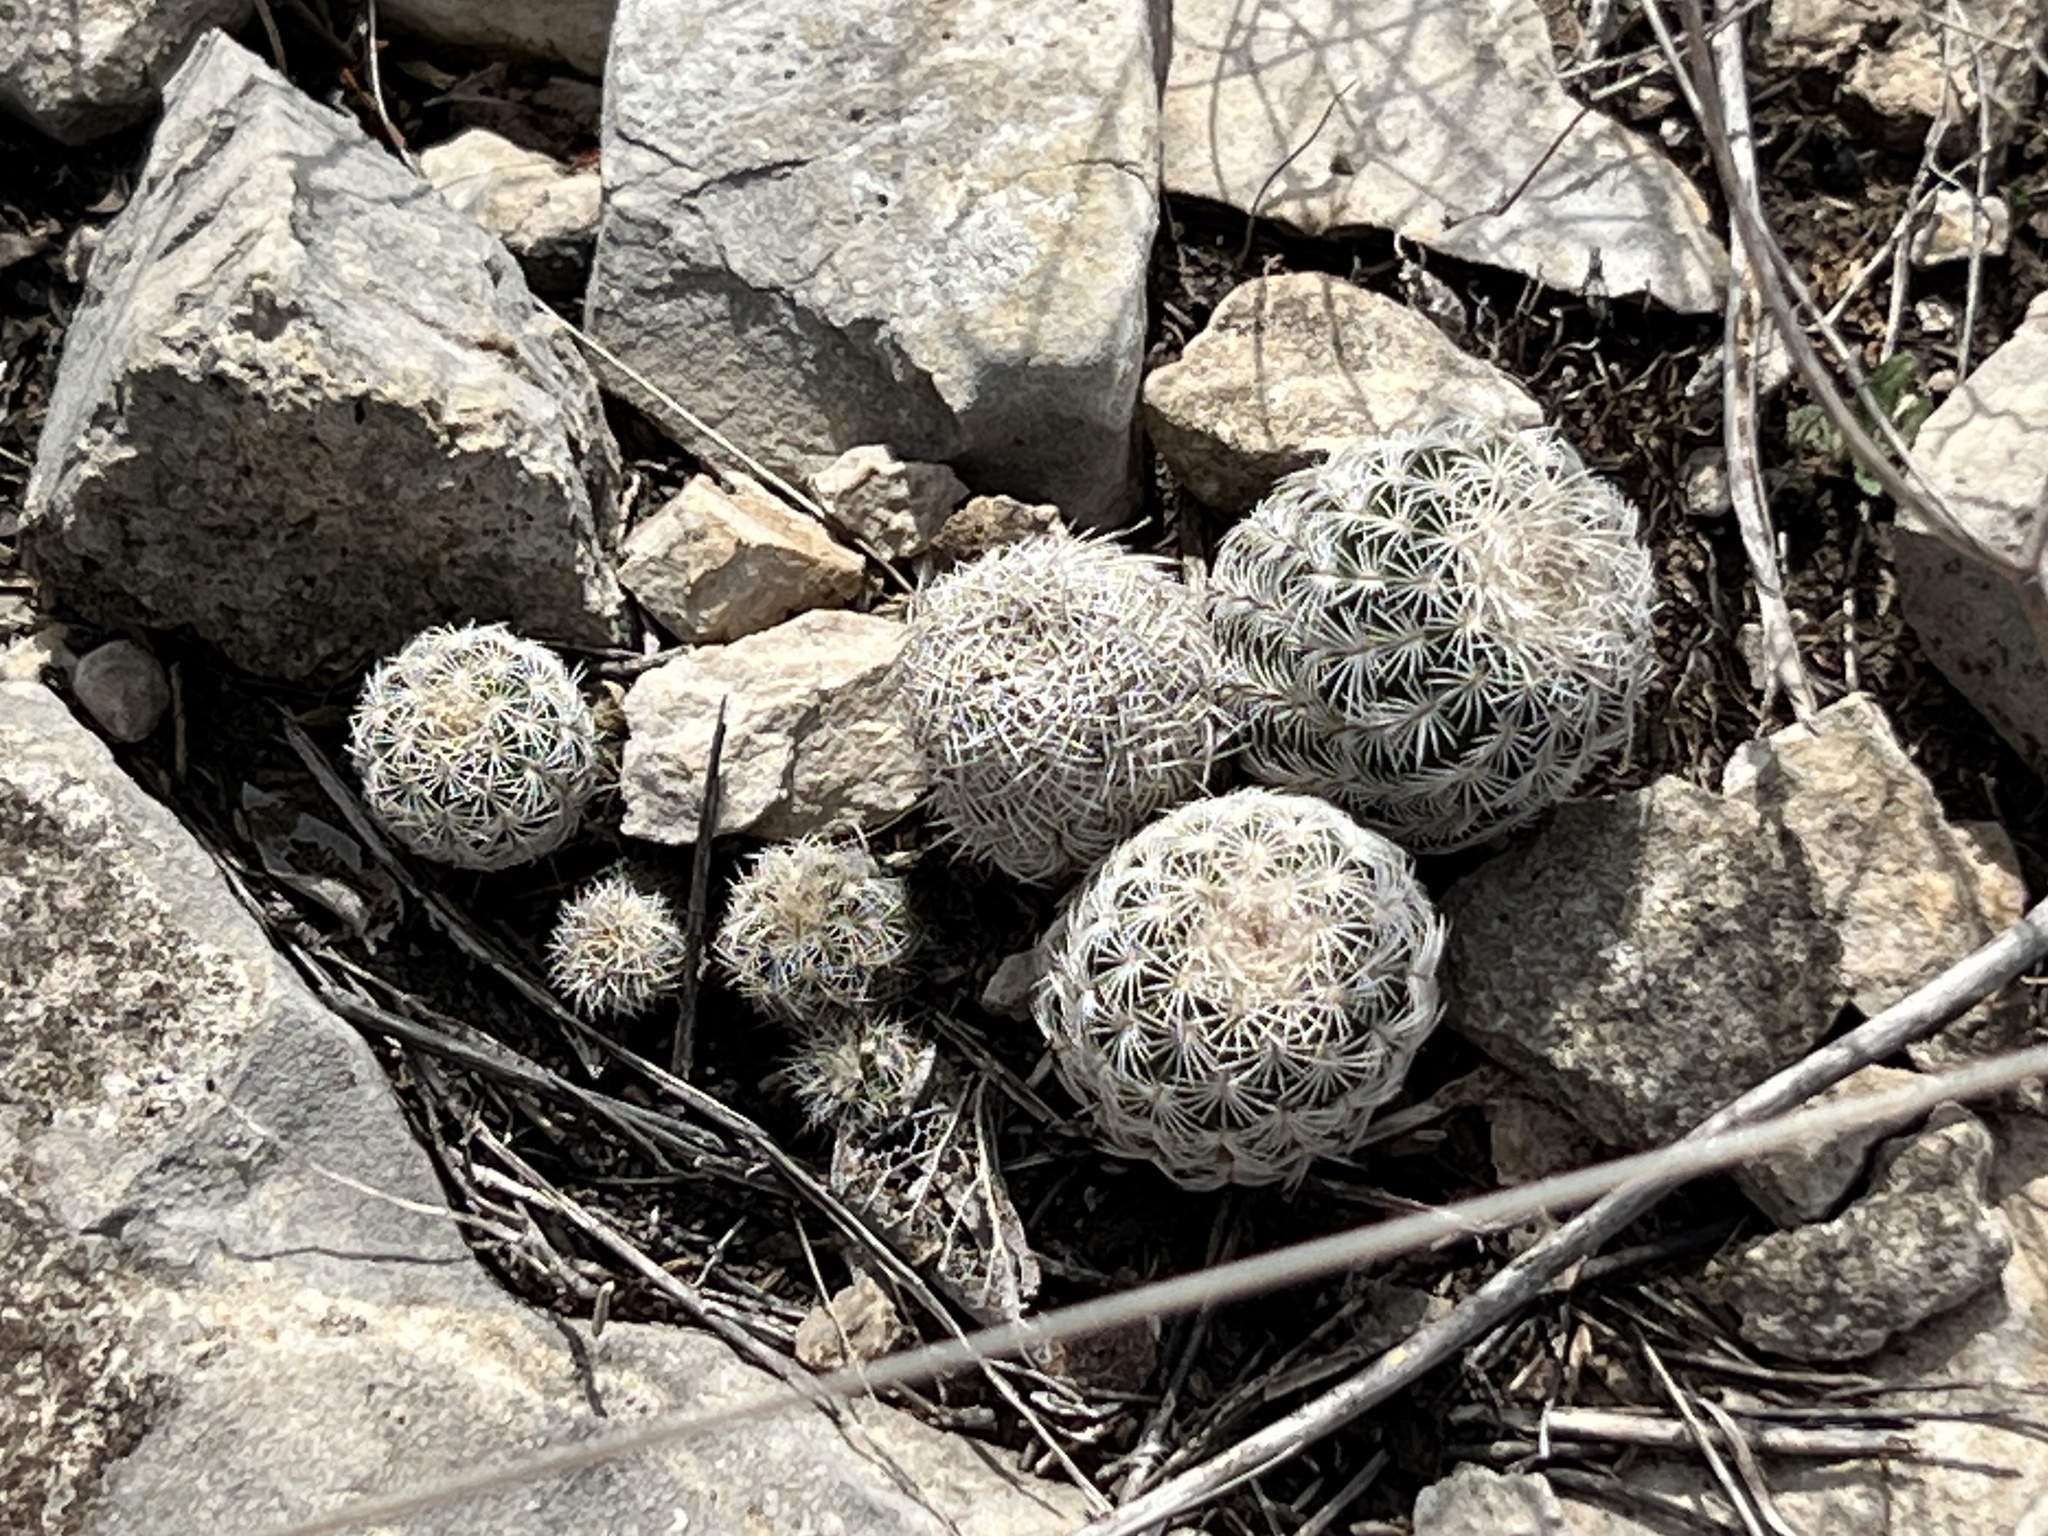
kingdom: Plantae
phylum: Tracheophyta
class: Magnoliopsida
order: Caryophyllales
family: Cactaceae
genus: Echinocereus
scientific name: Echinocereus reichenbachii
